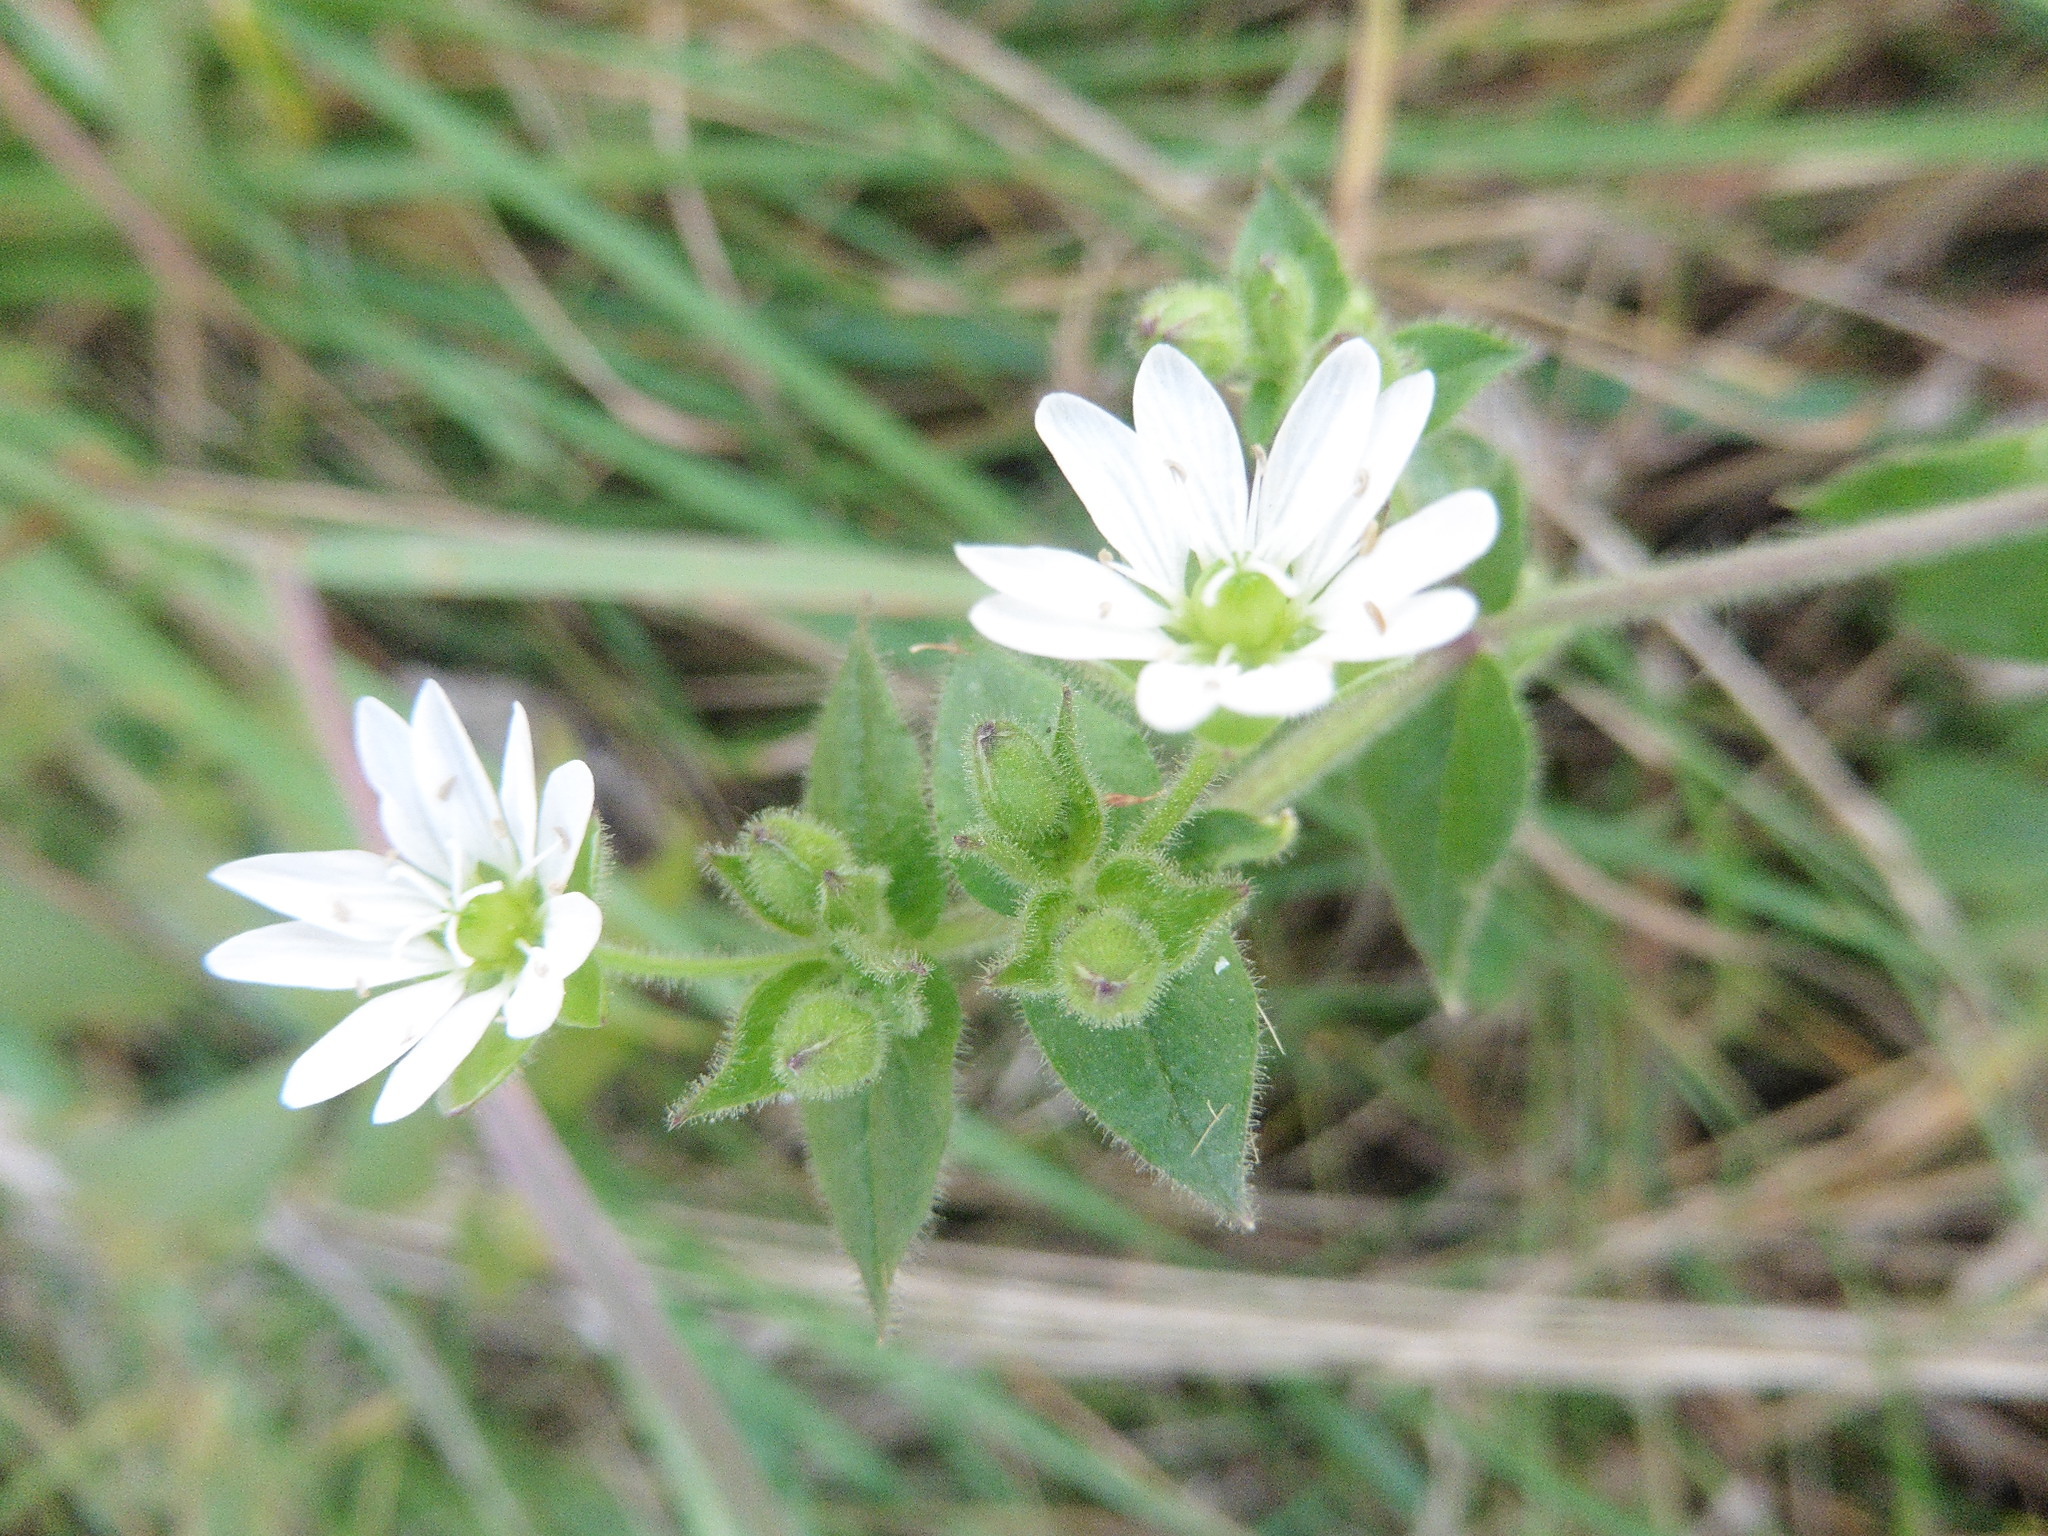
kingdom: Plantae
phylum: Tracheophyta
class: Magnoliopsida
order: Caryophyllales
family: Caryophyllaceae
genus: Stellaria
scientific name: Stellaria aquatica
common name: Water chickweed
